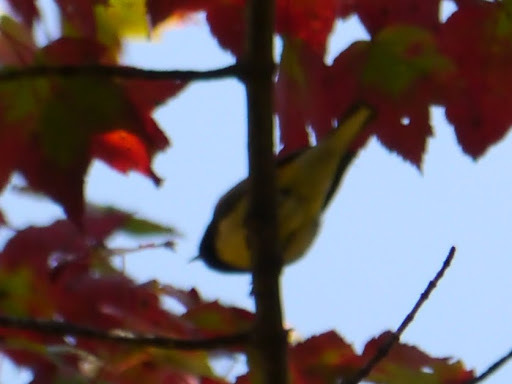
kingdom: Animalia
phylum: Chordata
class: Aves
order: Passeriformes
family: Parulidae
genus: Setophaga
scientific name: Setophaga caerulescens
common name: Black-throated blue warbler
